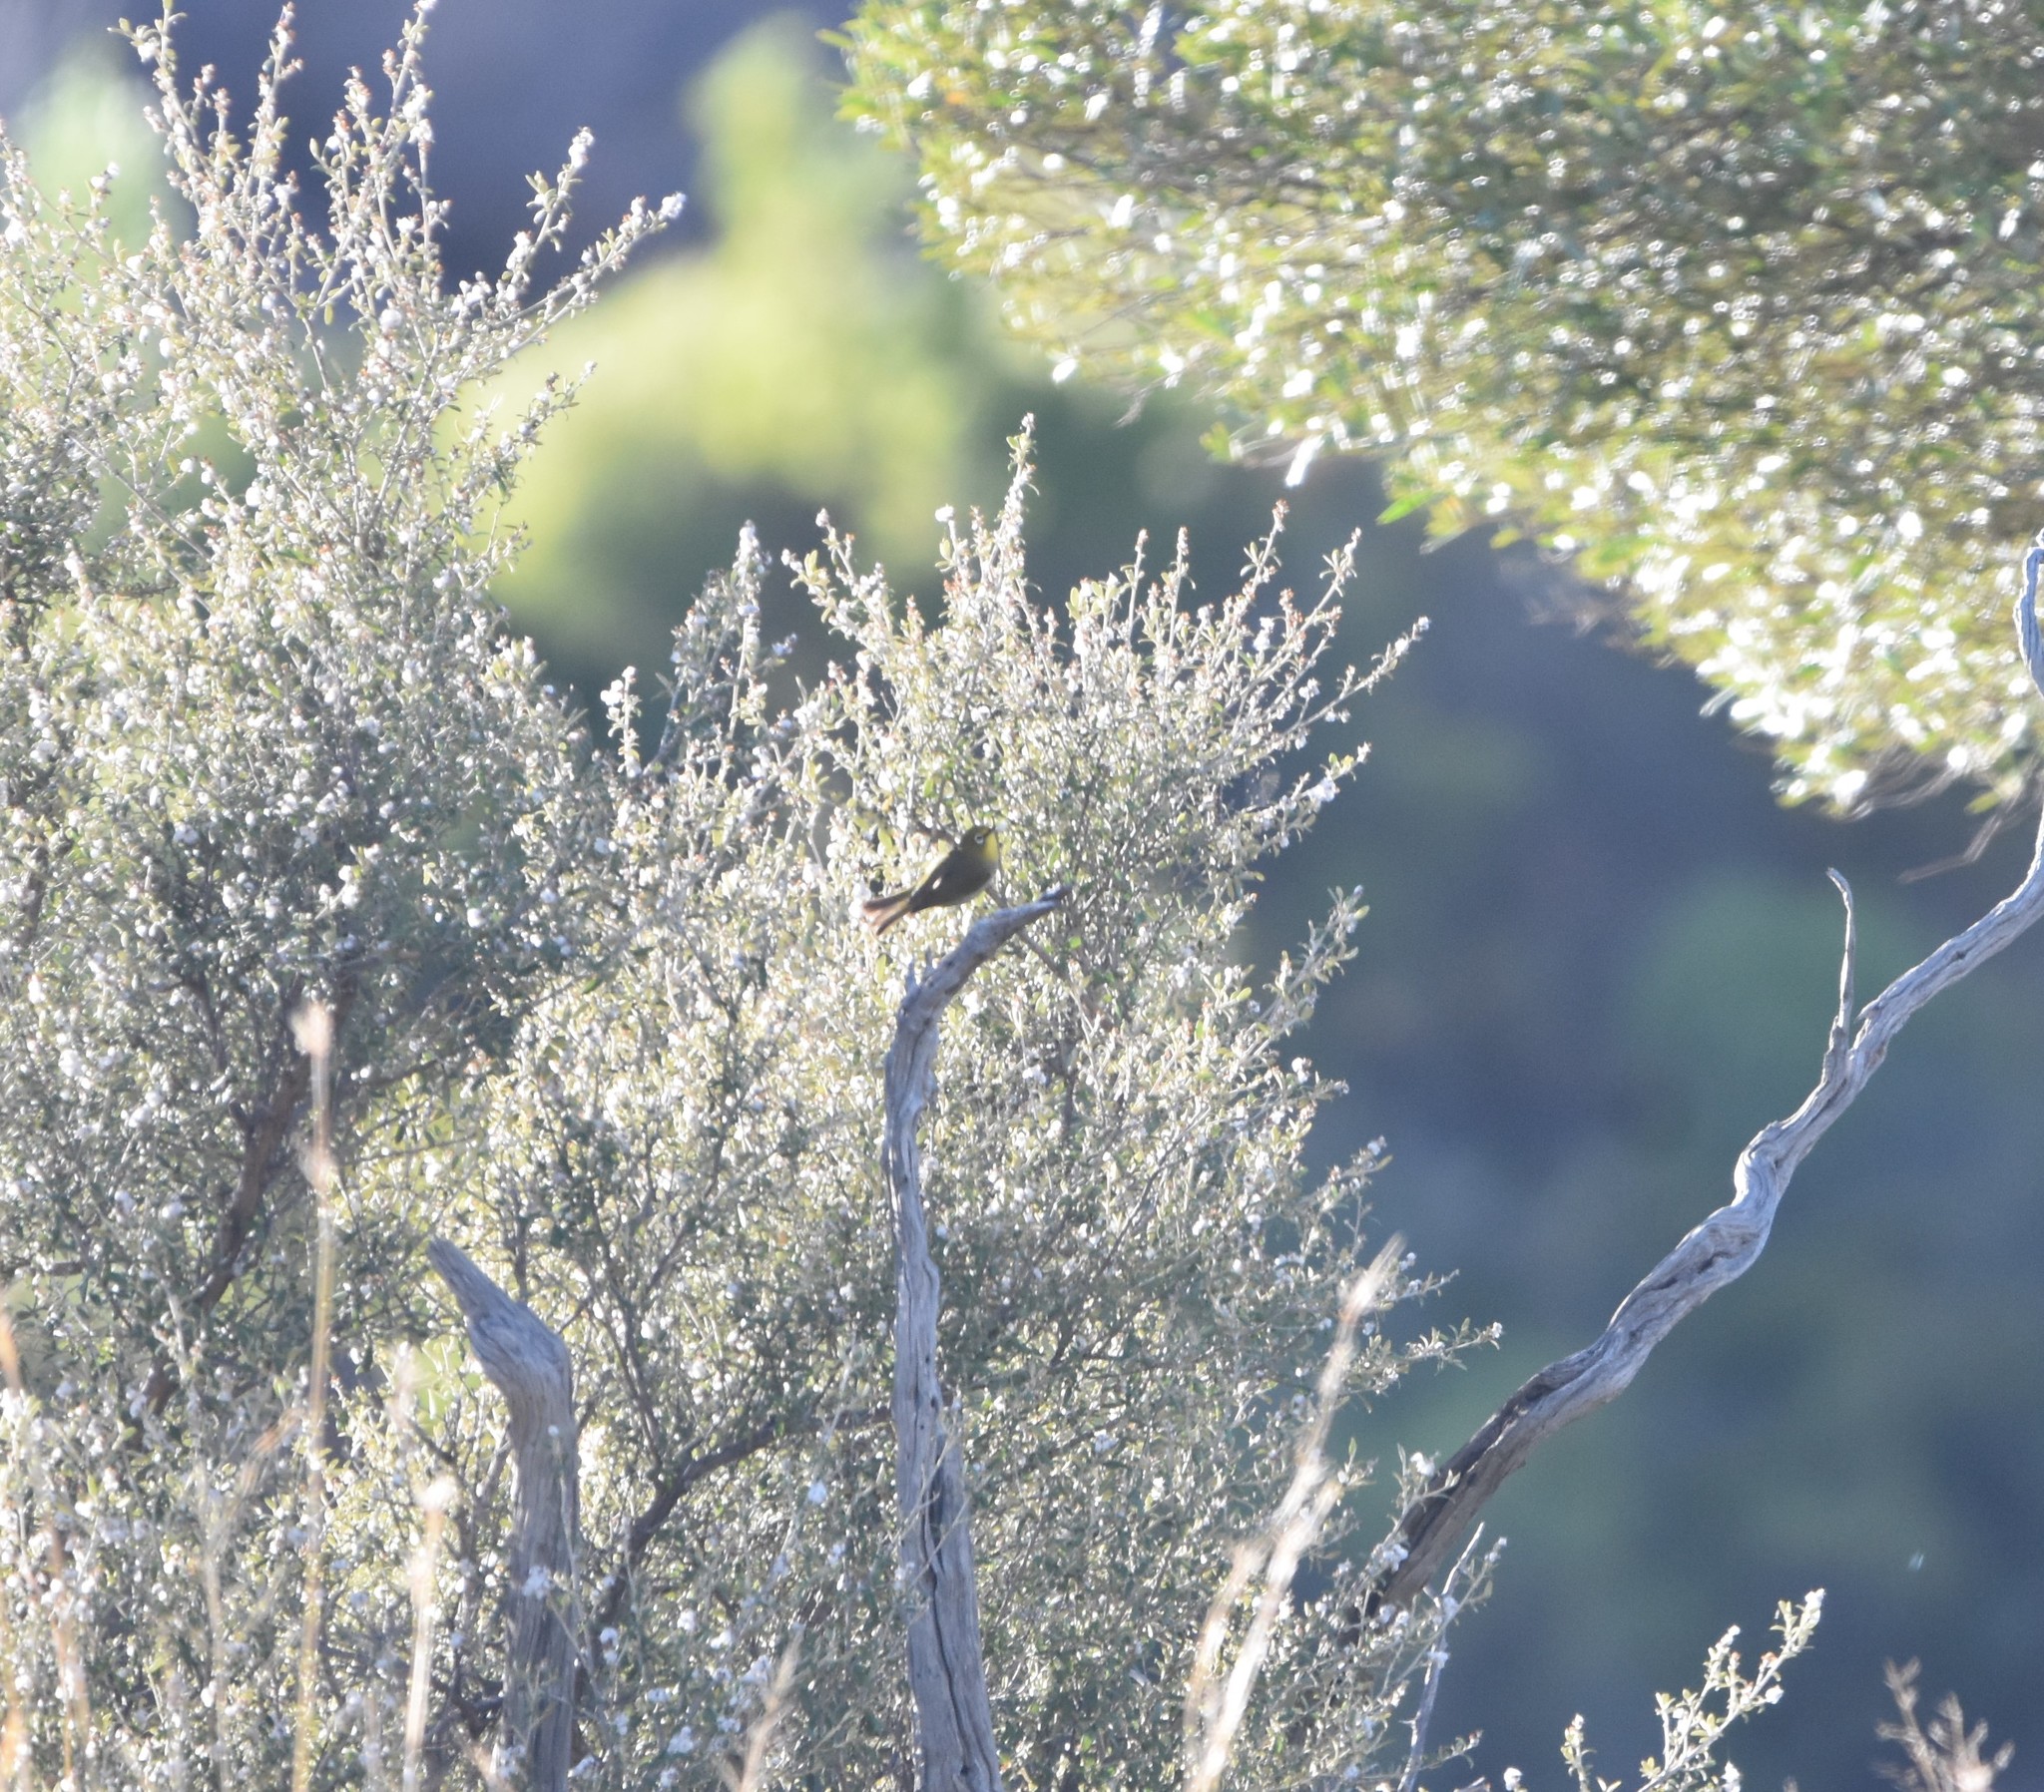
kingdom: Animalia
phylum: Chordata
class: Aves
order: Passeriformes
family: Zosteropidae
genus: Zosterops
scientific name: Zosterops virens
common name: Cape white-eye
